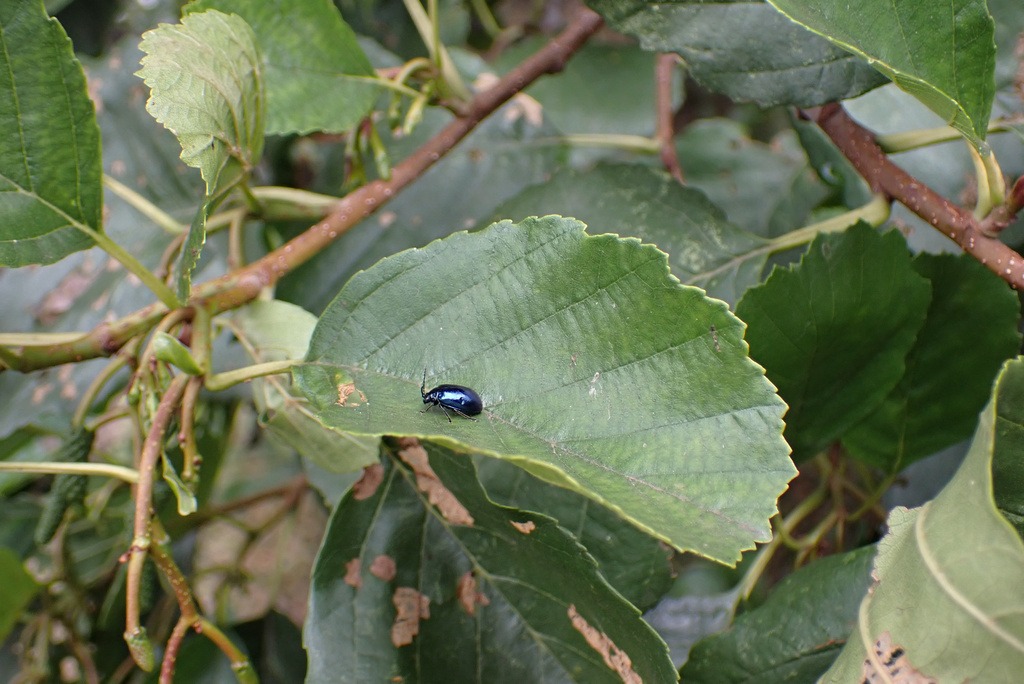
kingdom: Animalia
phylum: Arthropoda
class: Insecta
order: Coleoptera
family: Chrysomelidae
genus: Agelastica
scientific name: Agelastica alni
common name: Alder leaf beetle
